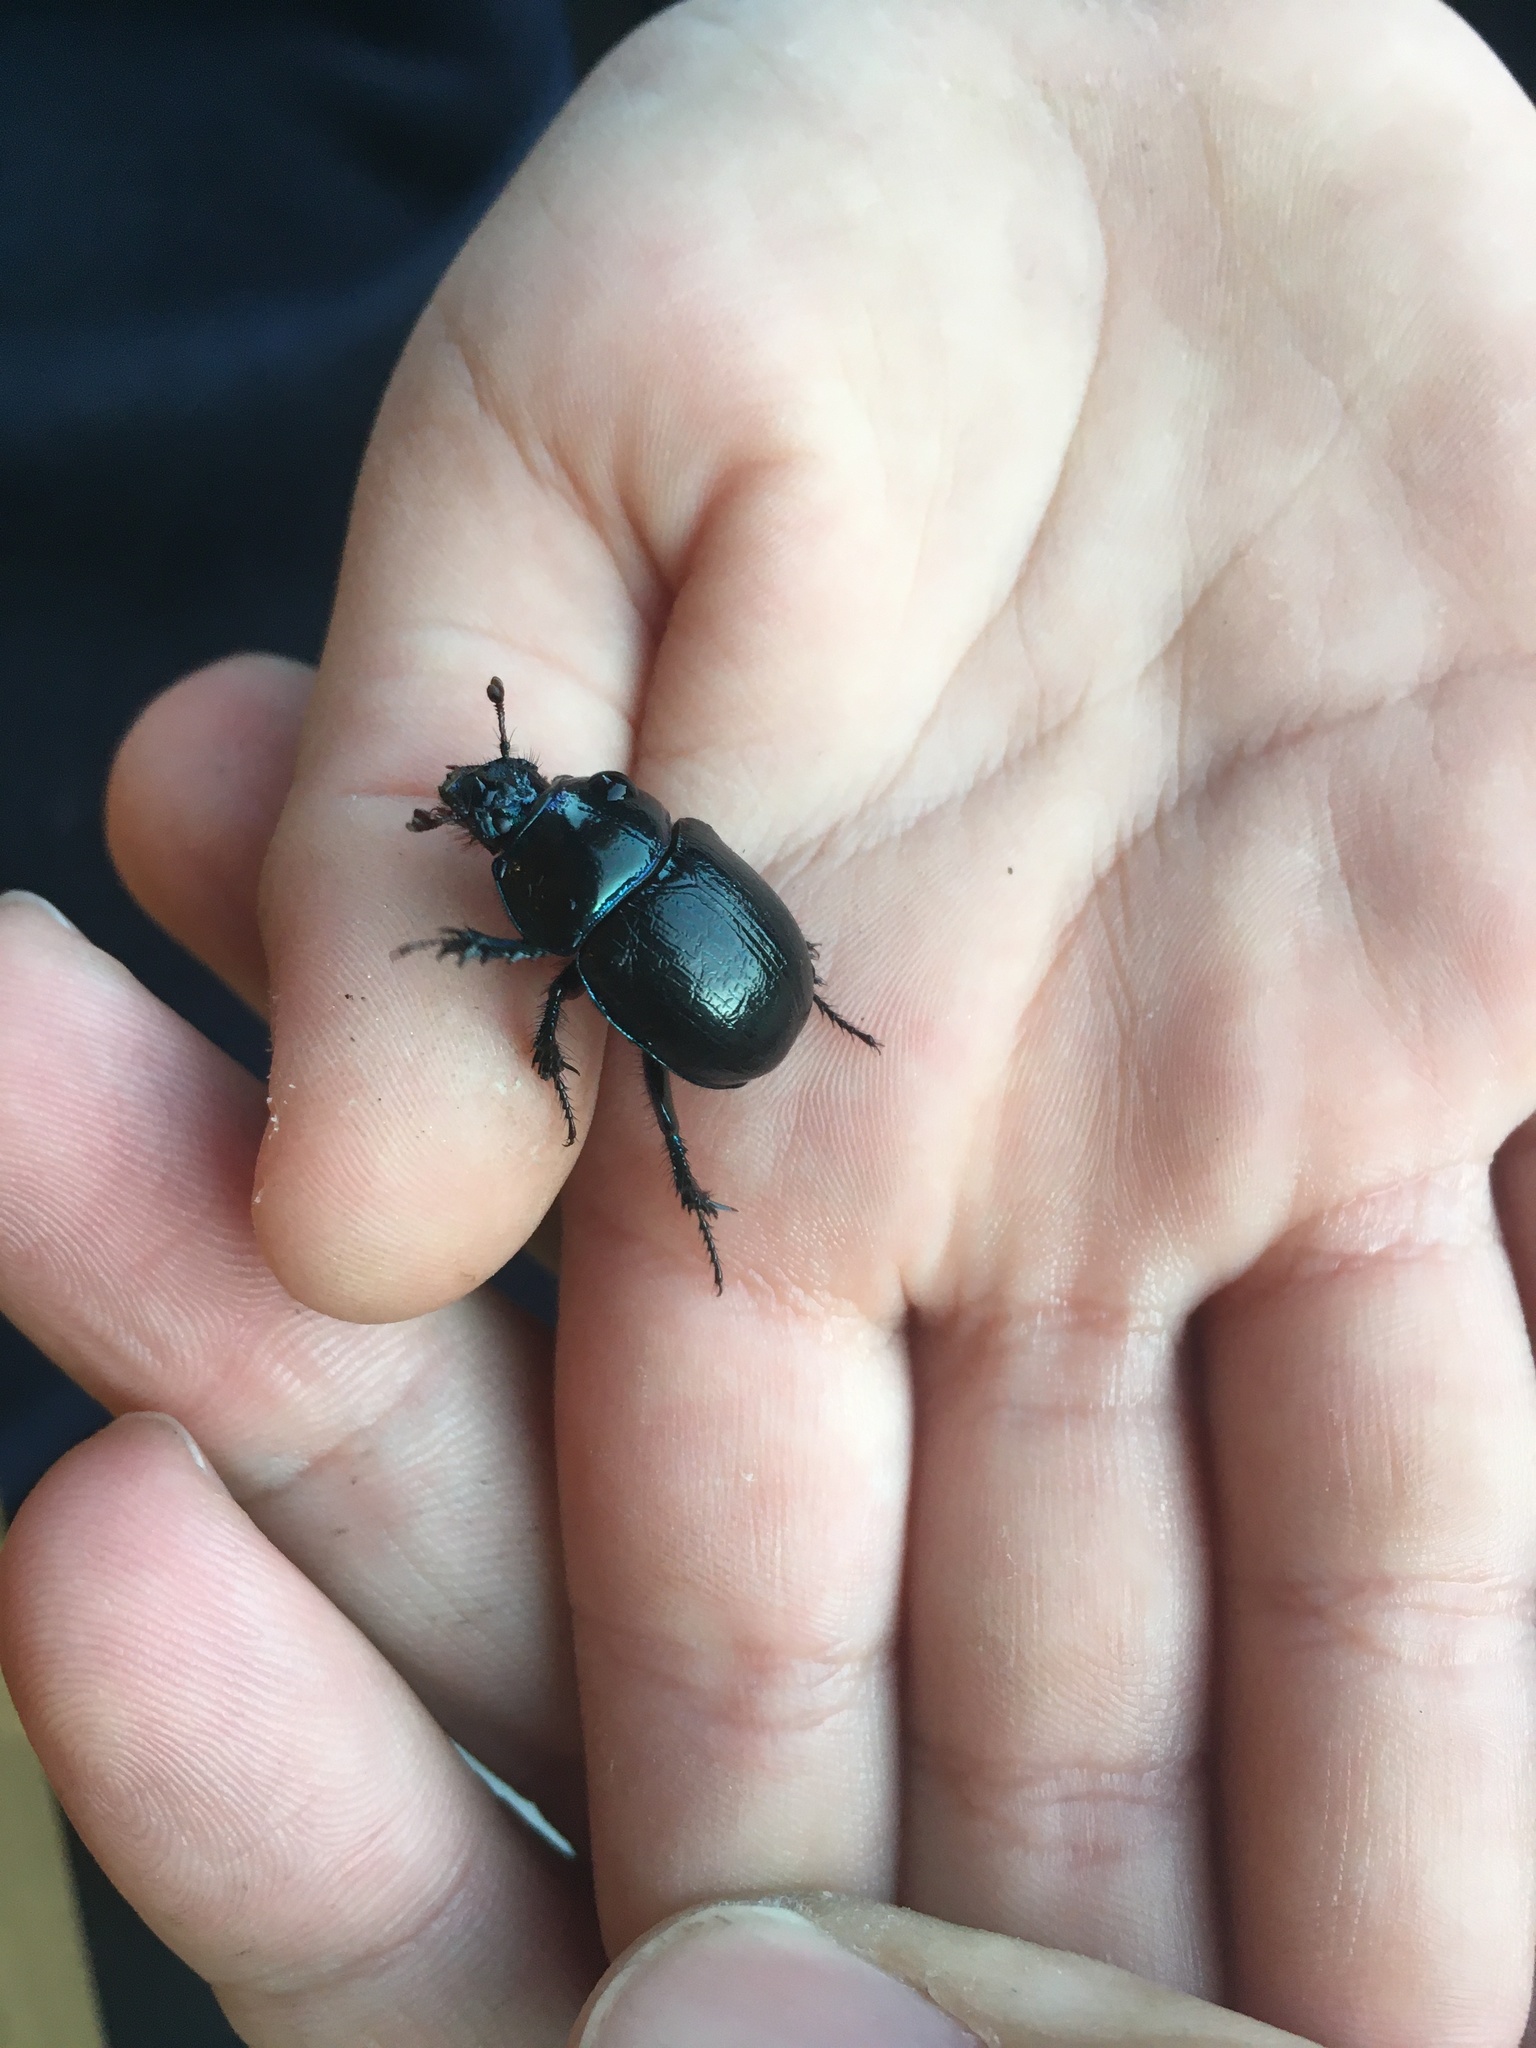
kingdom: Animalia
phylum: Arthropoda
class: Insecta
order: Coleoptera
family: Geotrupidae
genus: Anoplotrupes
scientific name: Anoplotrupes stercorosus
